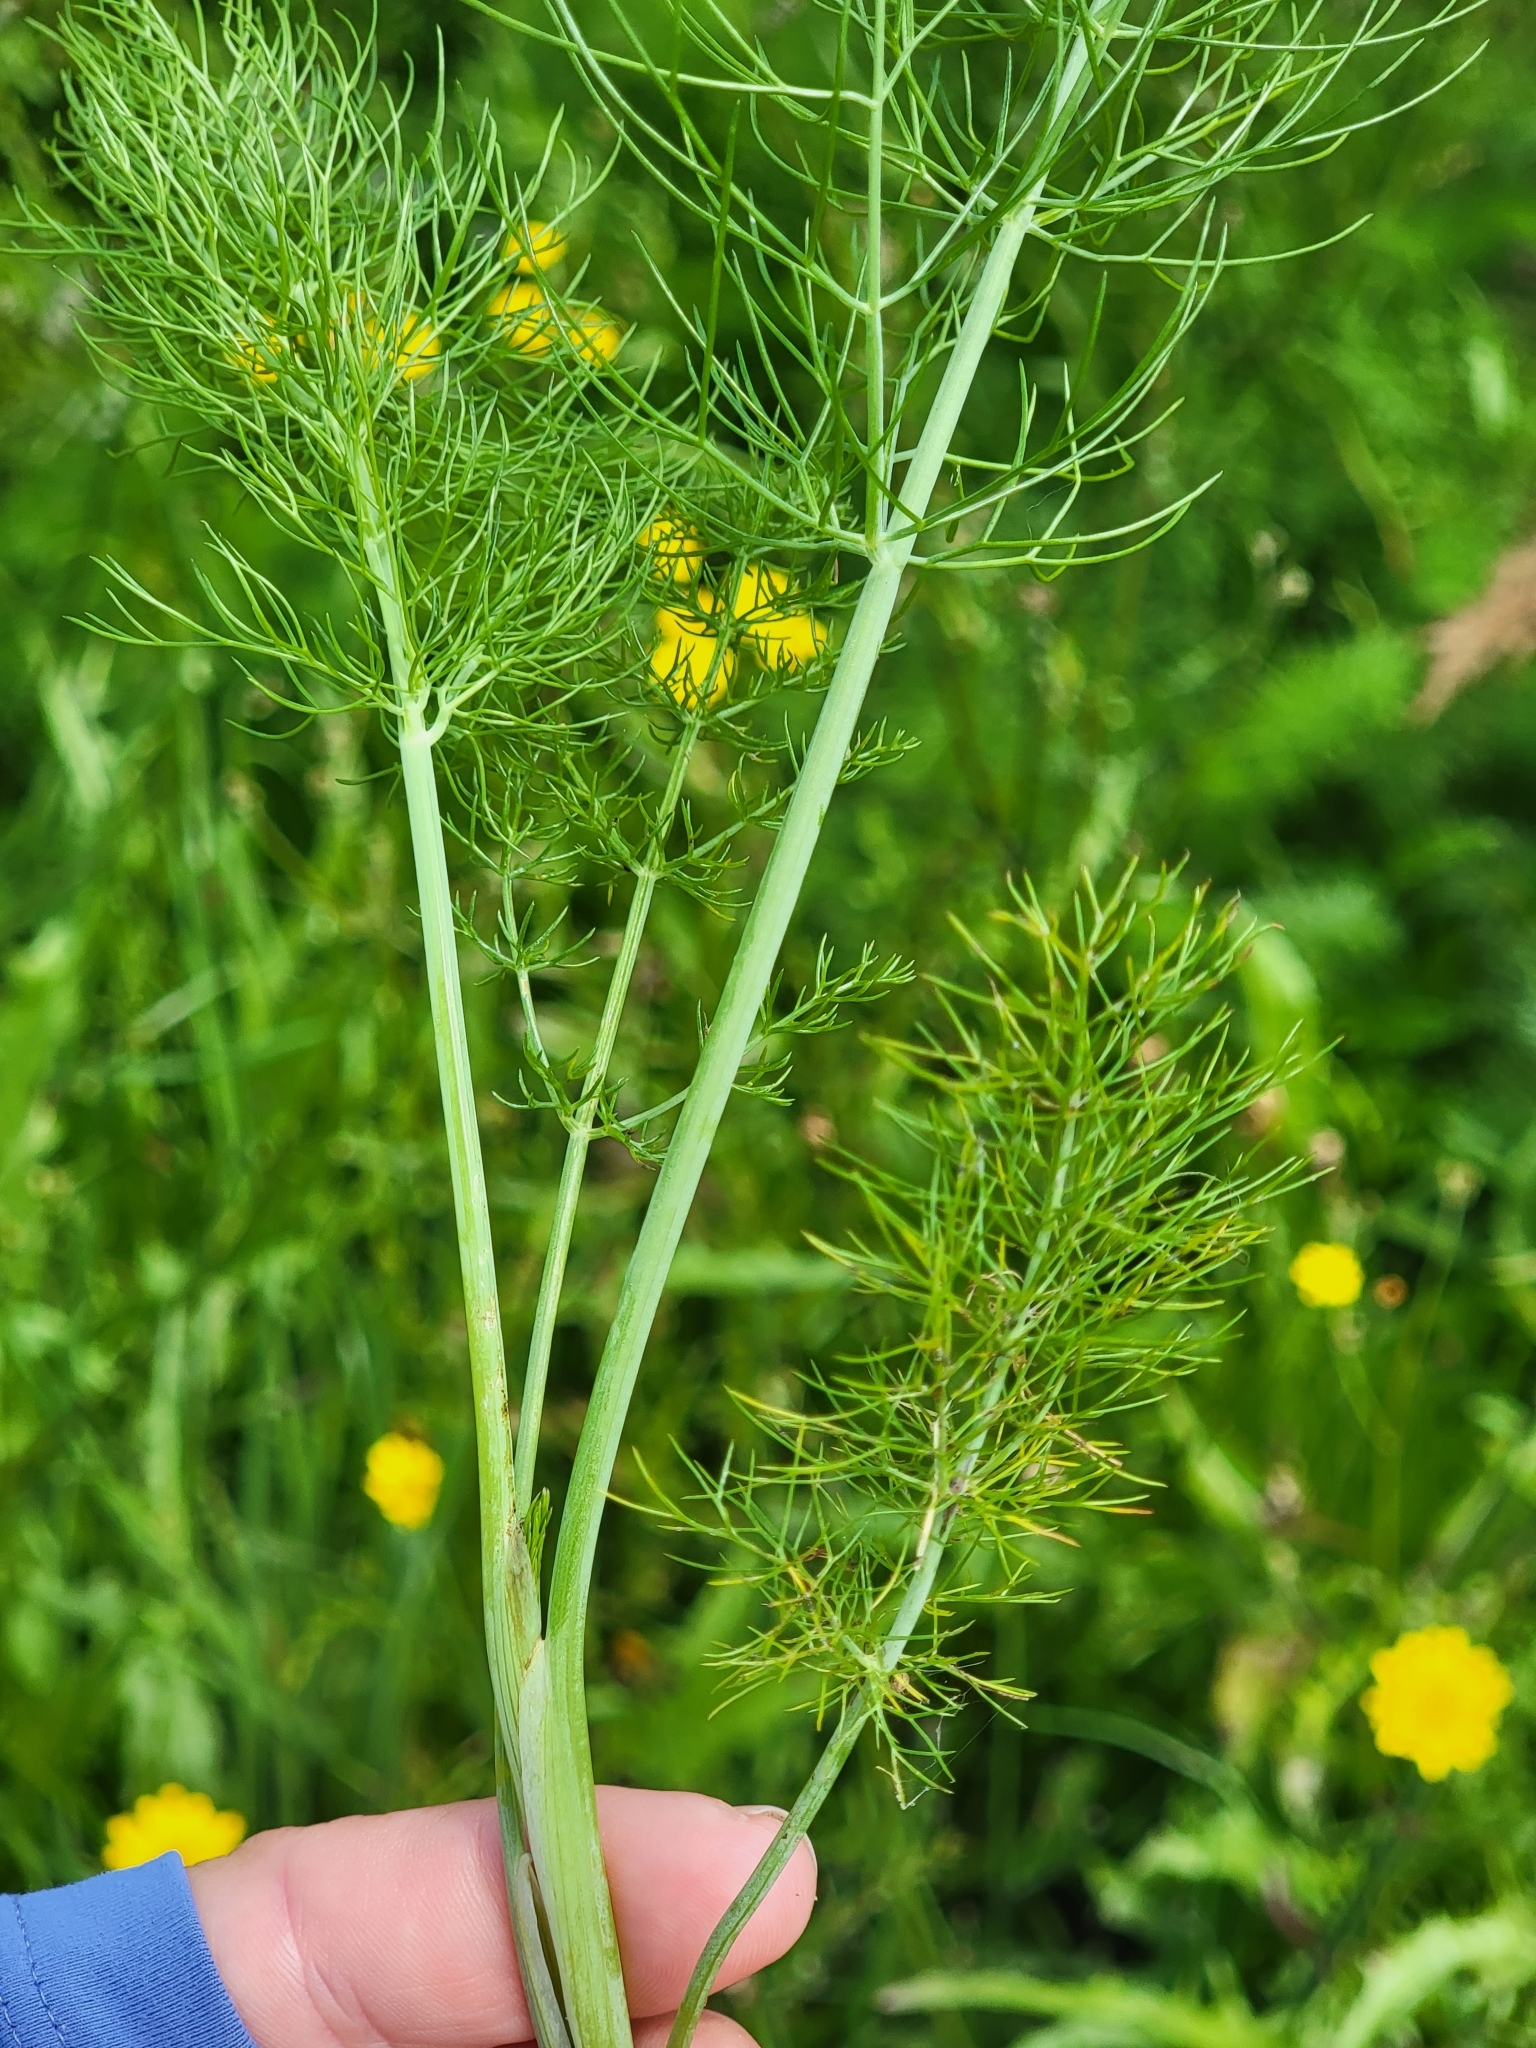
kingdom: Plantae
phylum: Tracheophyta
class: Magnoliopsida
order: Apiales
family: Apiaceae
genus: Foeniculum
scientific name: Foeniculum vulgare
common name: Fennel
